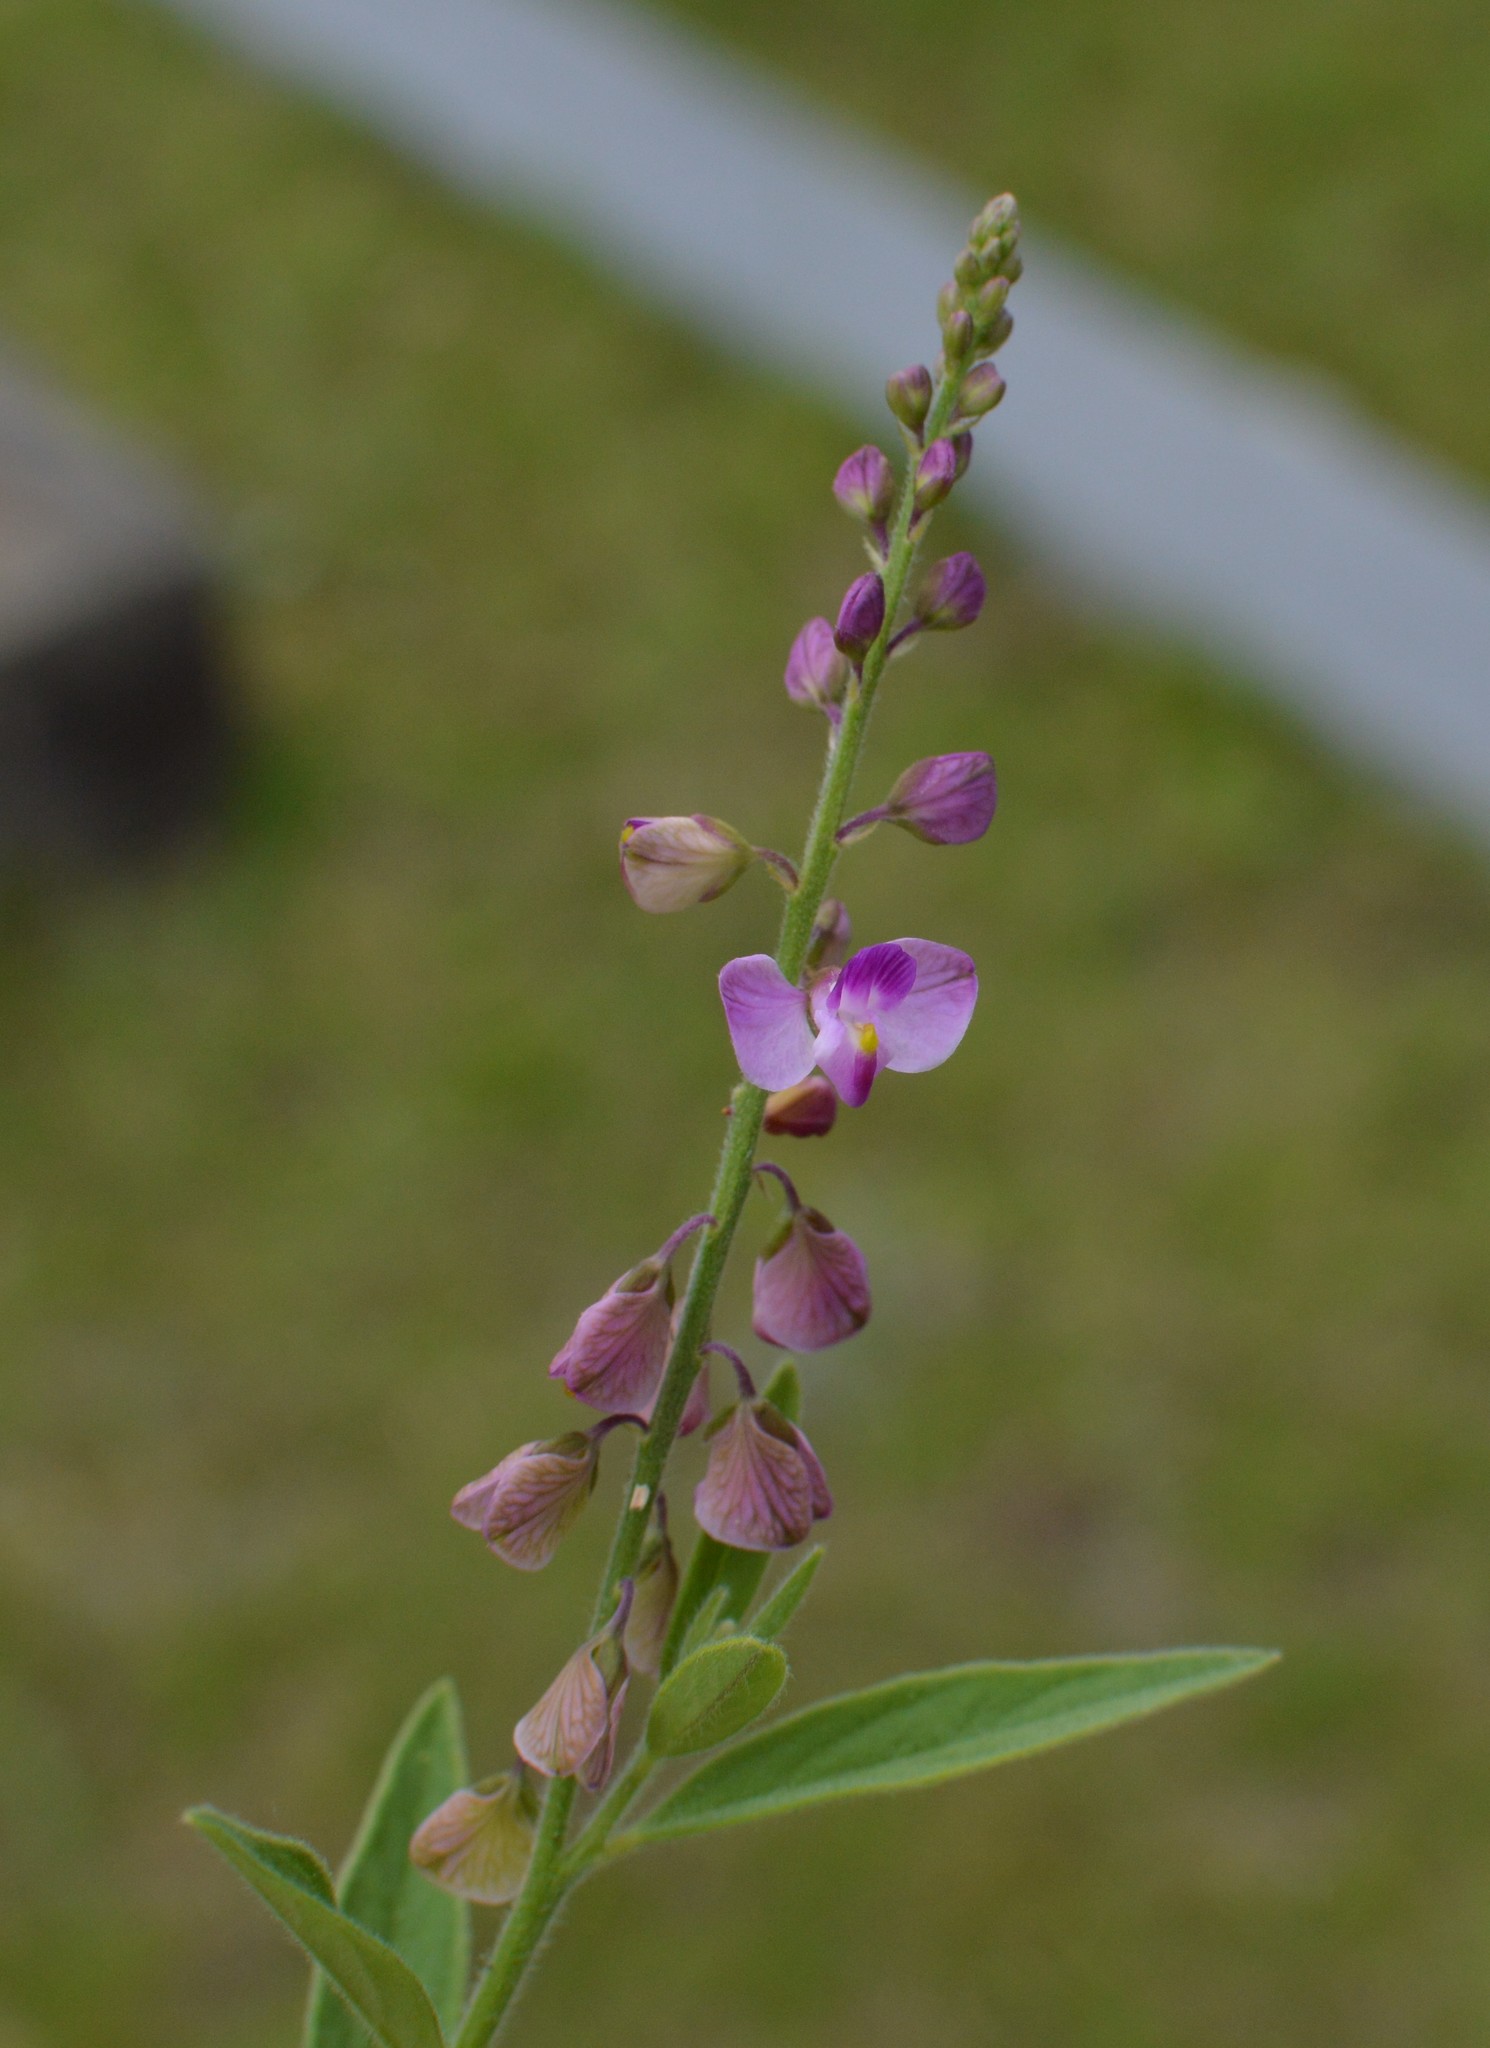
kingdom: Plantae
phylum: Tracheophyta
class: Magnoliopsida
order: Fabales
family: Polygalaceae
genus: Asemeia
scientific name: Asemeia grandiflora
